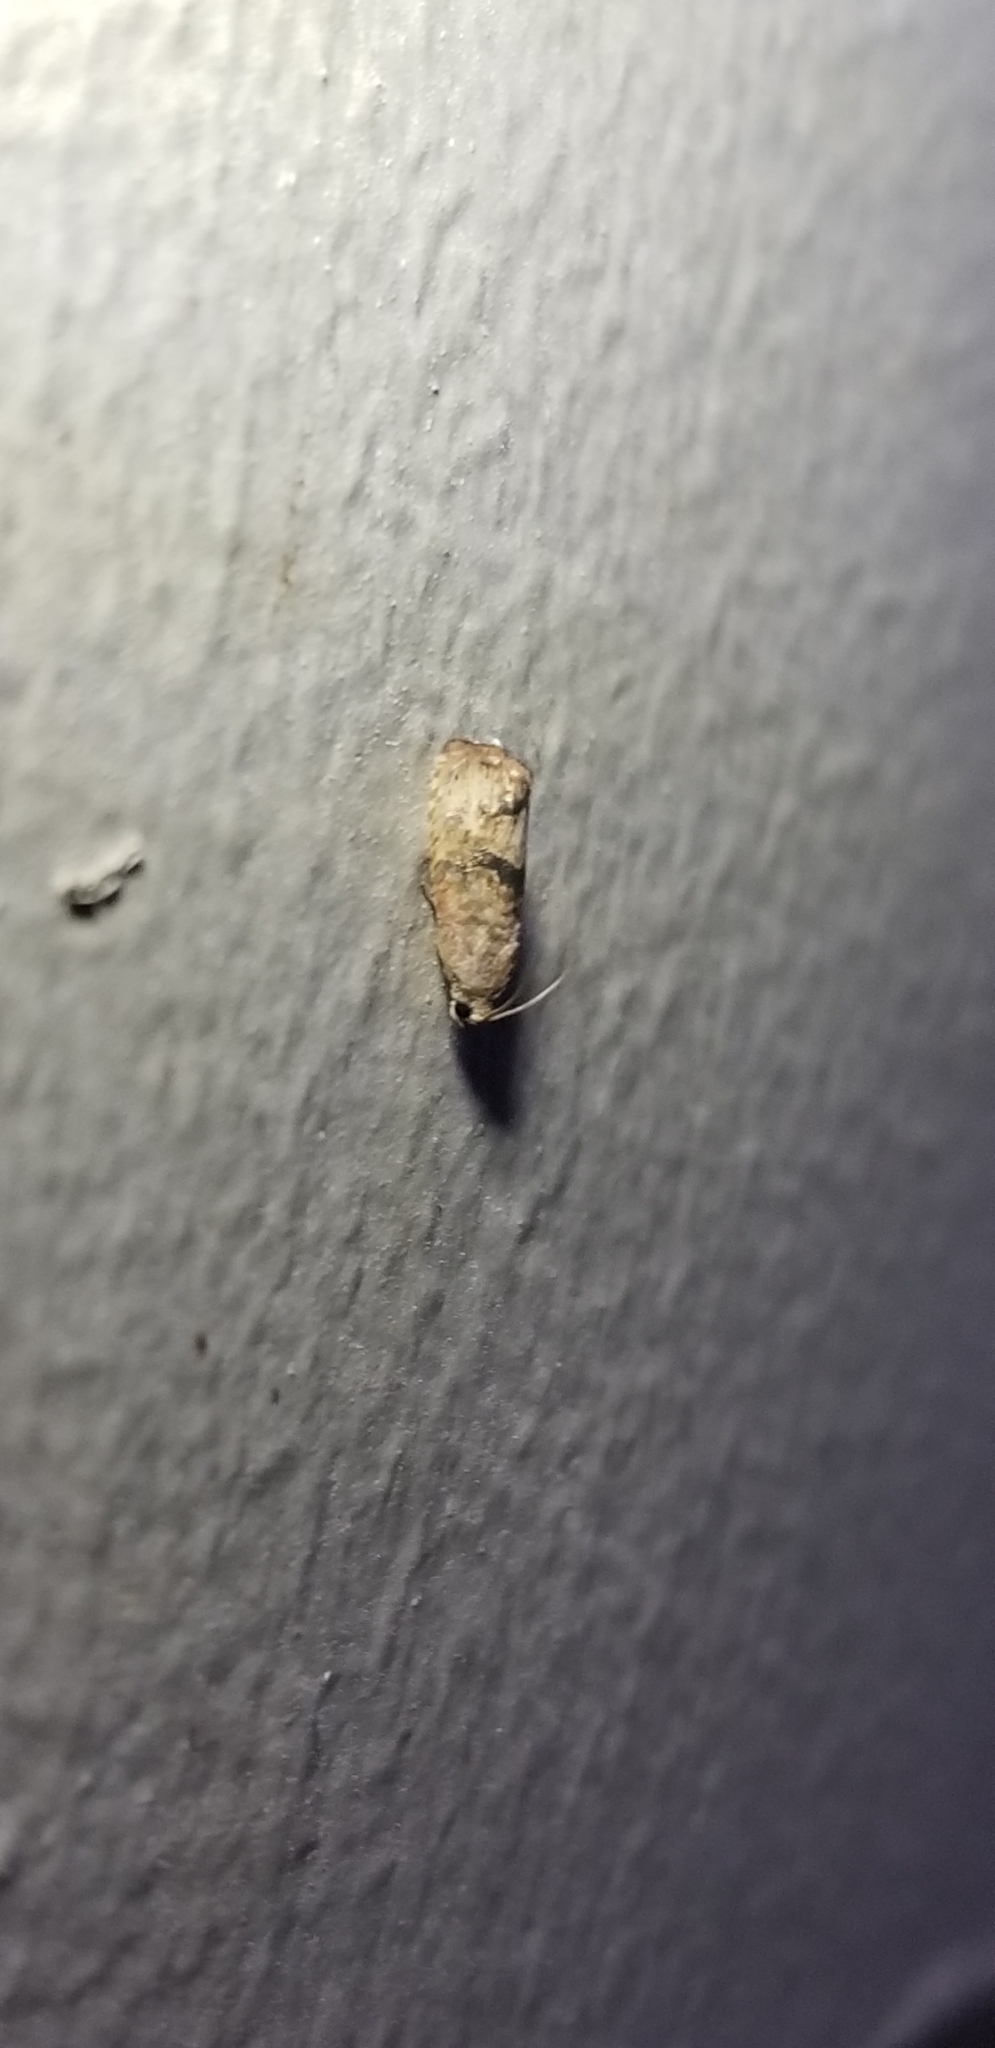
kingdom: Animalia
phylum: Arthropoda
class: Insecta
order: Lepidoptera
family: Tortricidae
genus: Cydia
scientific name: Cydia latiferreana
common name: Filbertworm moth
